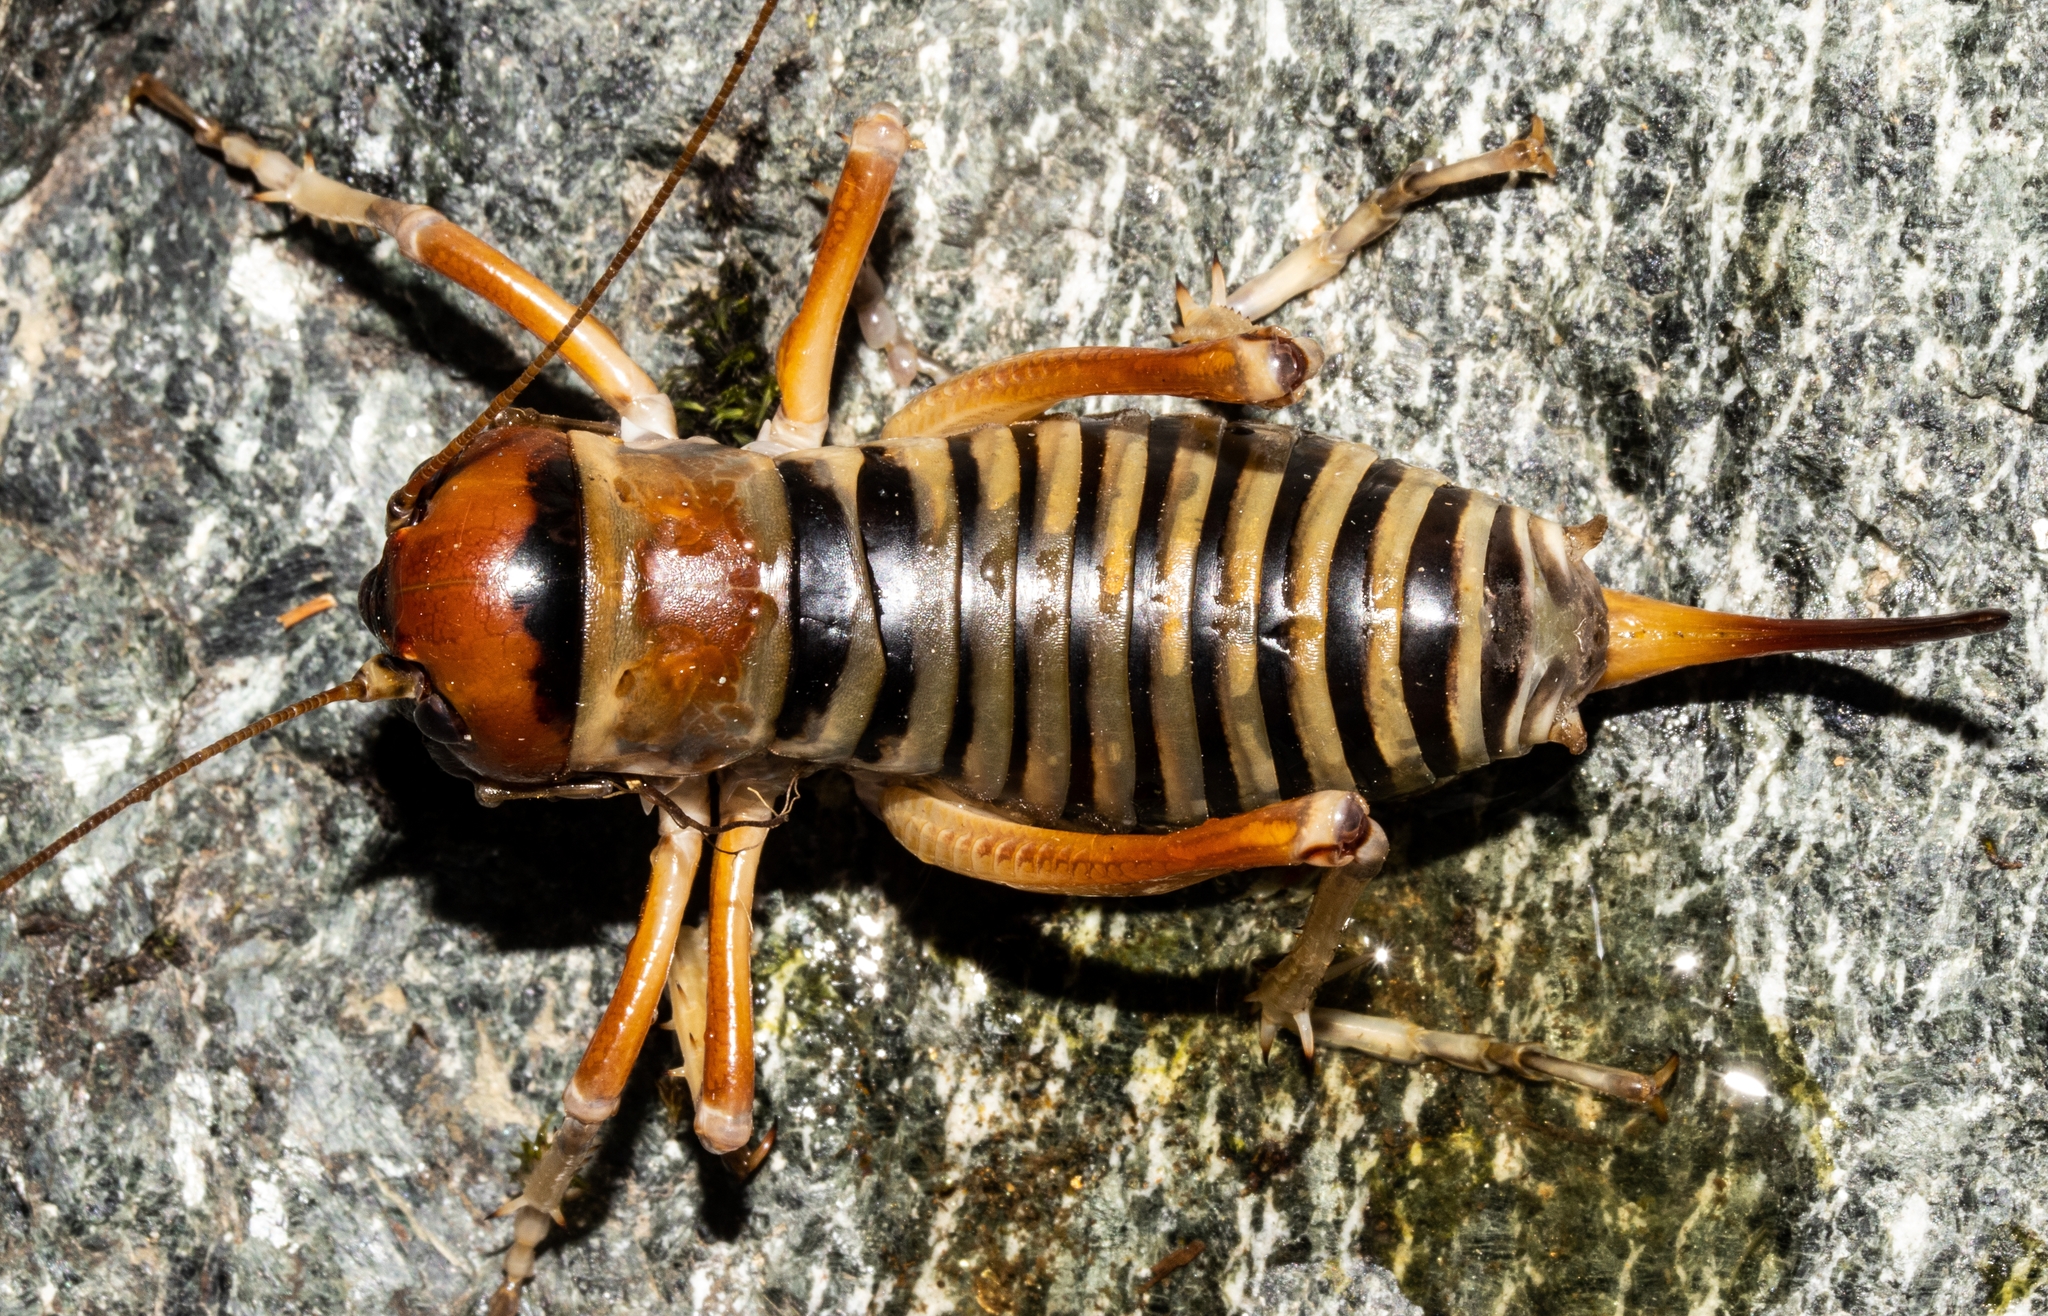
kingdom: Animalia
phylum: Arthropoda
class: Insecta
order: Orthoptera
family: Anostostomatidae
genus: Hemiandrus
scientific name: Hemiandrus superba
